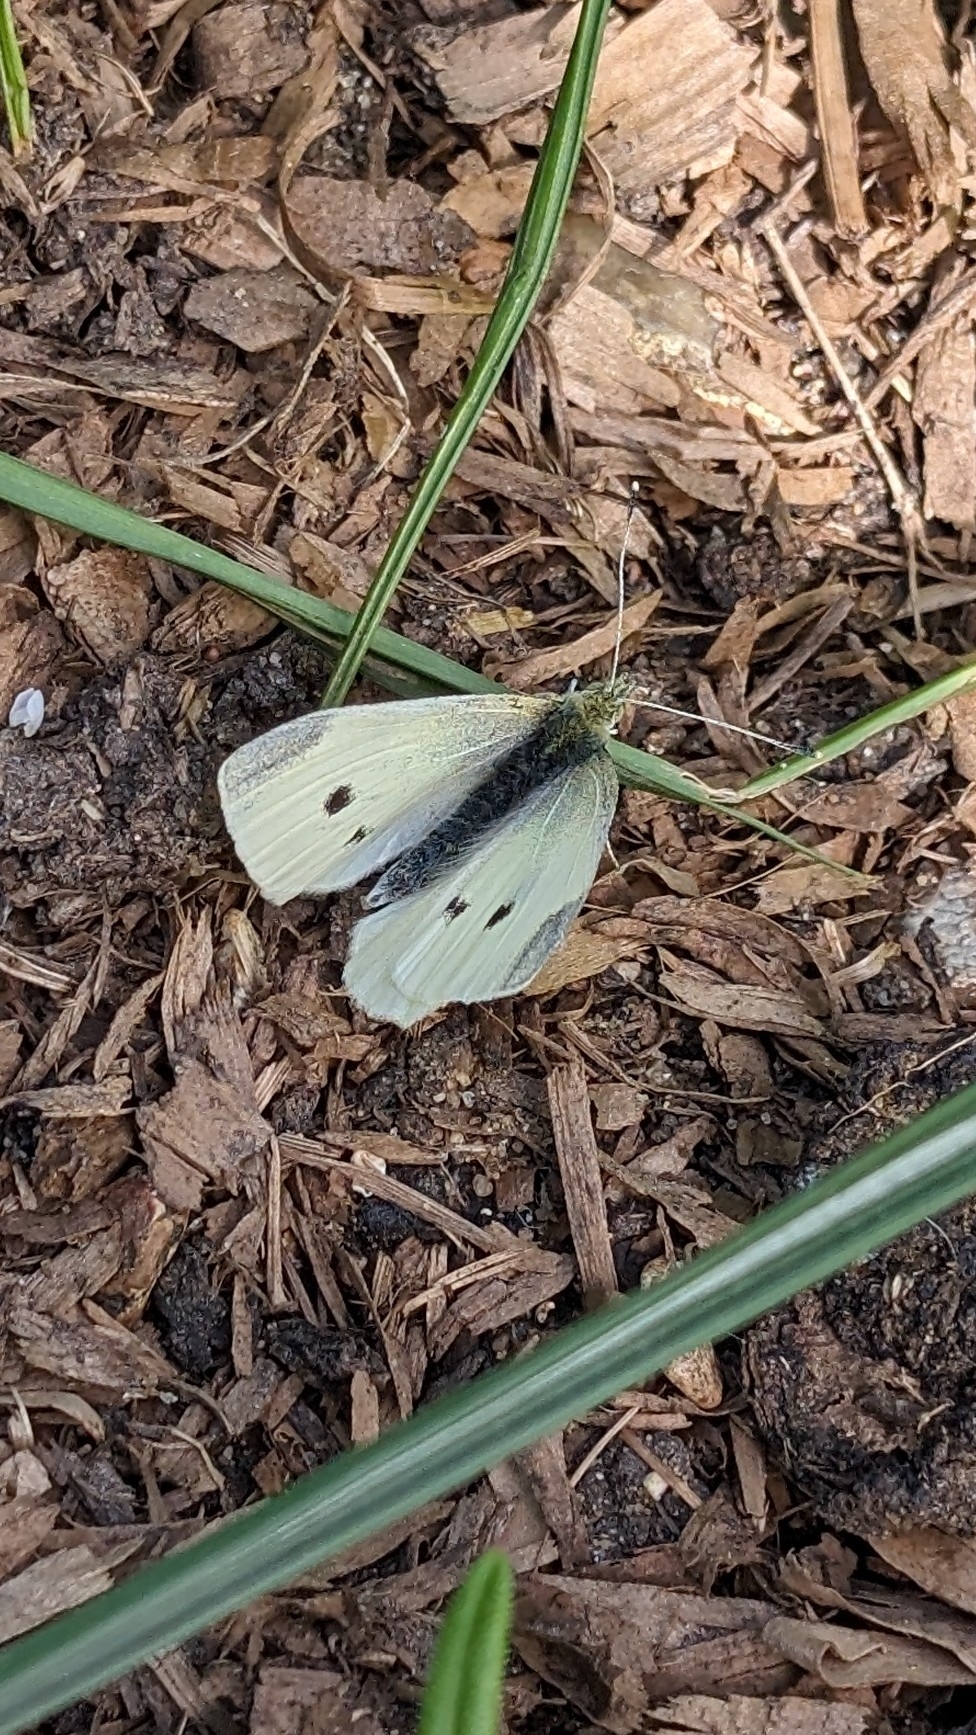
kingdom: Animalia
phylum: Arthropoda
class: Insecta
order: Lepidoptera
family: Pieridae
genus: Pieris
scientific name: Pieris rapae
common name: Small white
